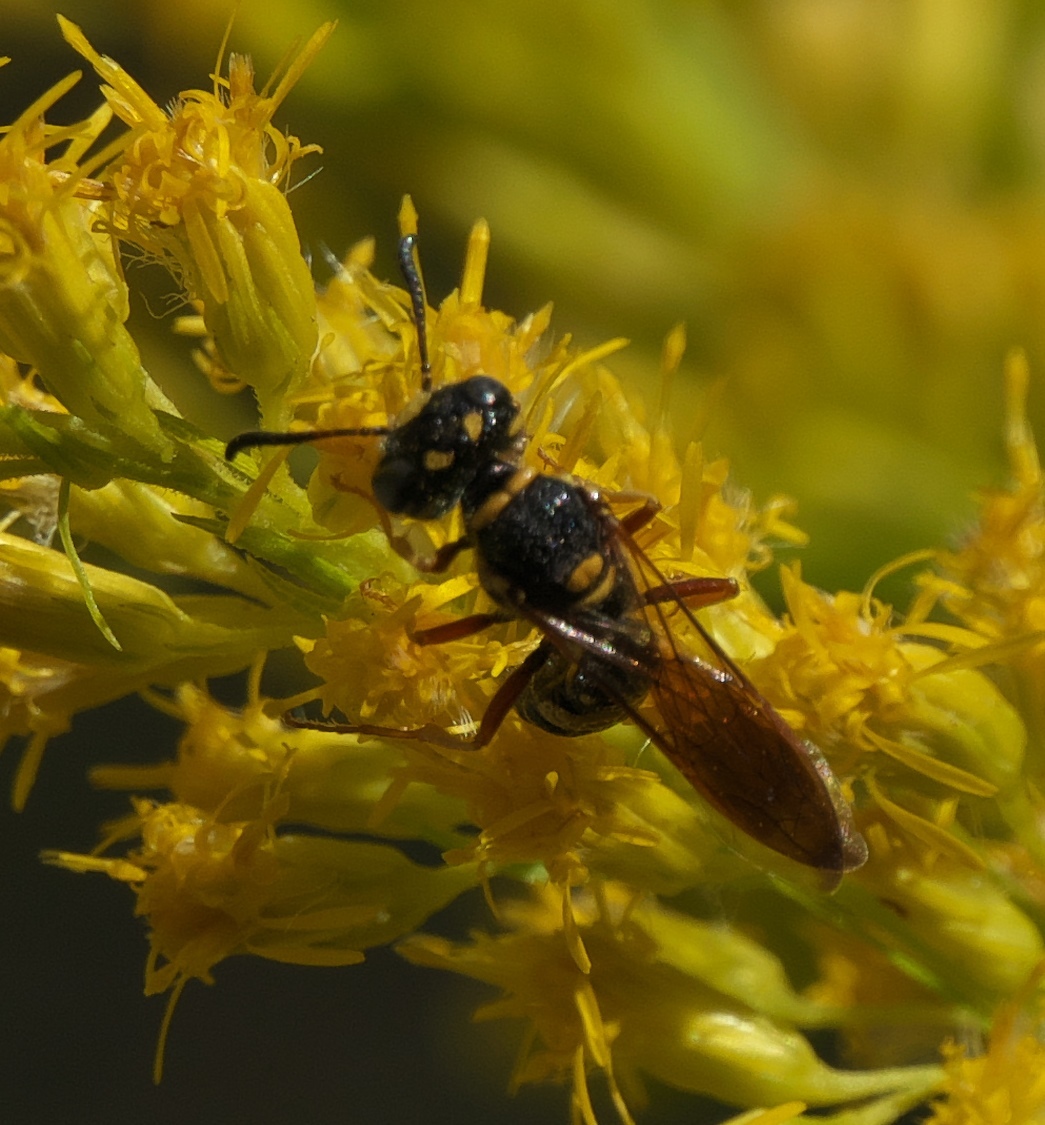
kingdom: Animalia
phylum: Arthropoda
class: Insecta
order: Hymenoptera
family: Crabronidae
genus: Philanthus
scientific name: Philanthus gibbosus
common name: Humped beewolf
